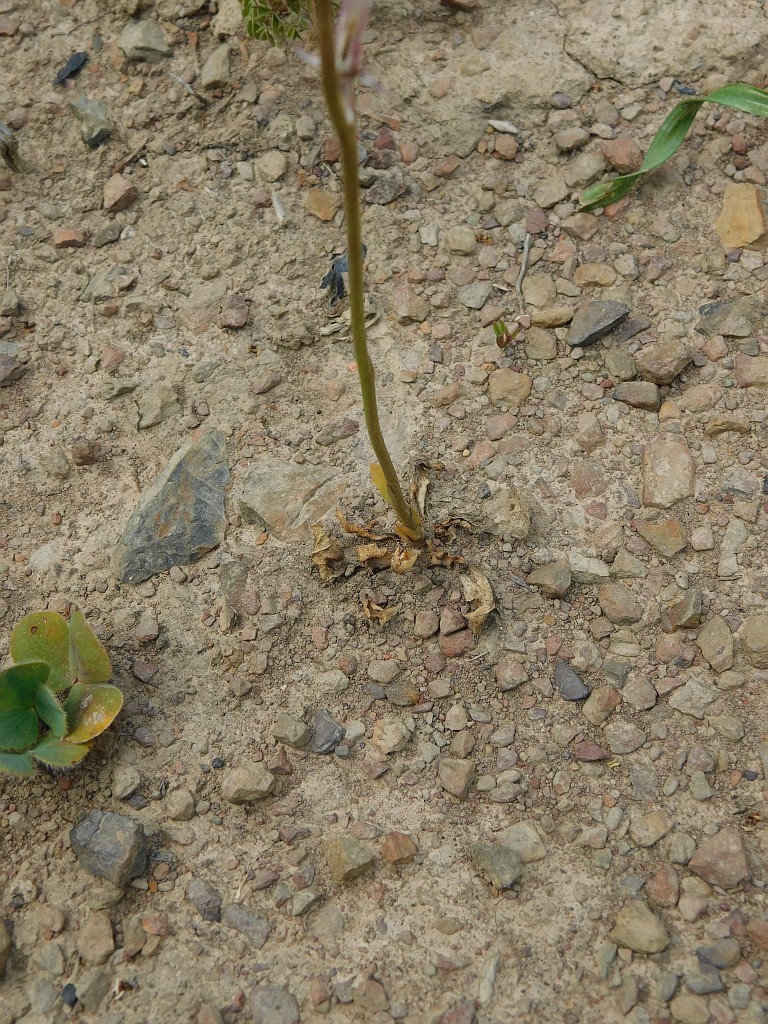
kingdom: Plantae
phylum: Tracheophyta
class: Magnoliopsida
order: Asterales
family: Campanulaceae
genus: Cyphia
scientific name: Cyphia phyteuma
